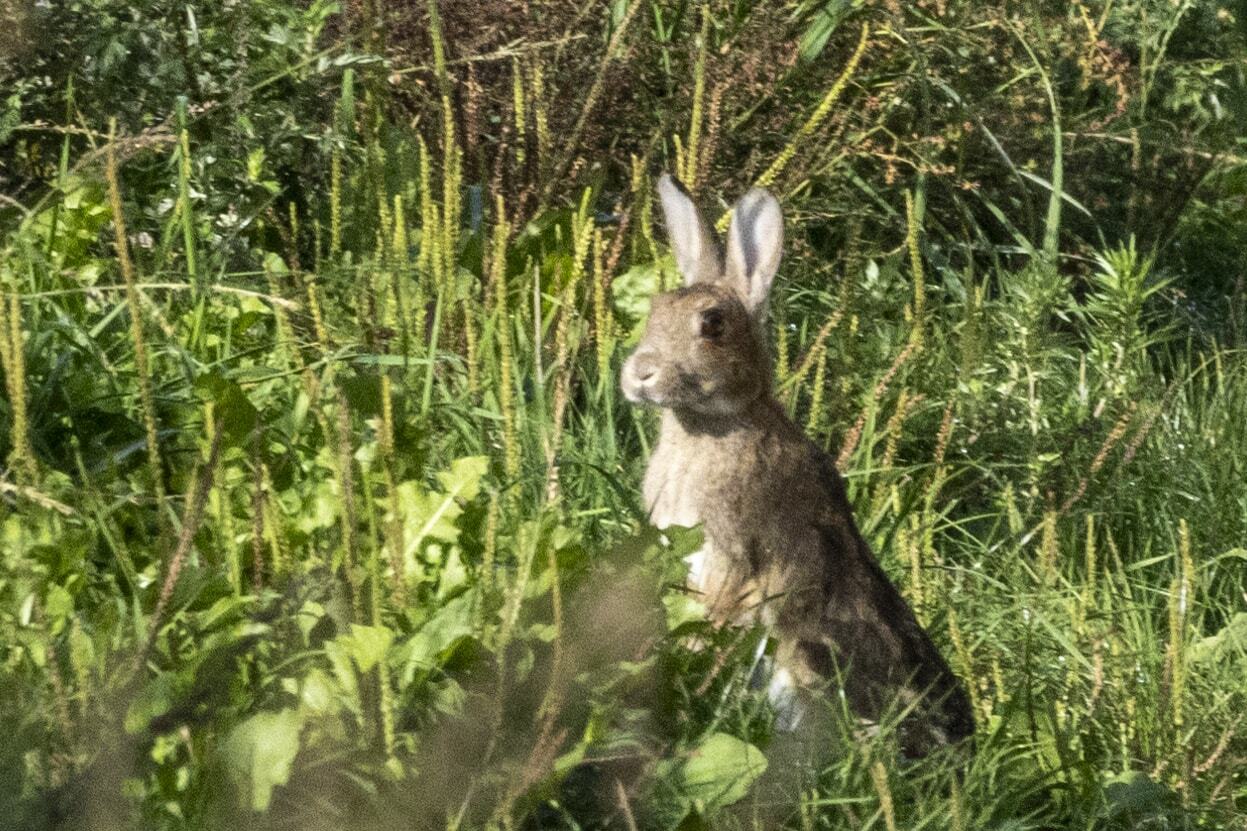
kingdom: Animalia
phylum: Chordata
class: Mammalia
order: Lagomorpha
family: Leporidae
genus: Oryctolagus
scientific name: Oryctolagus cuniculus
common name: European rabbit
